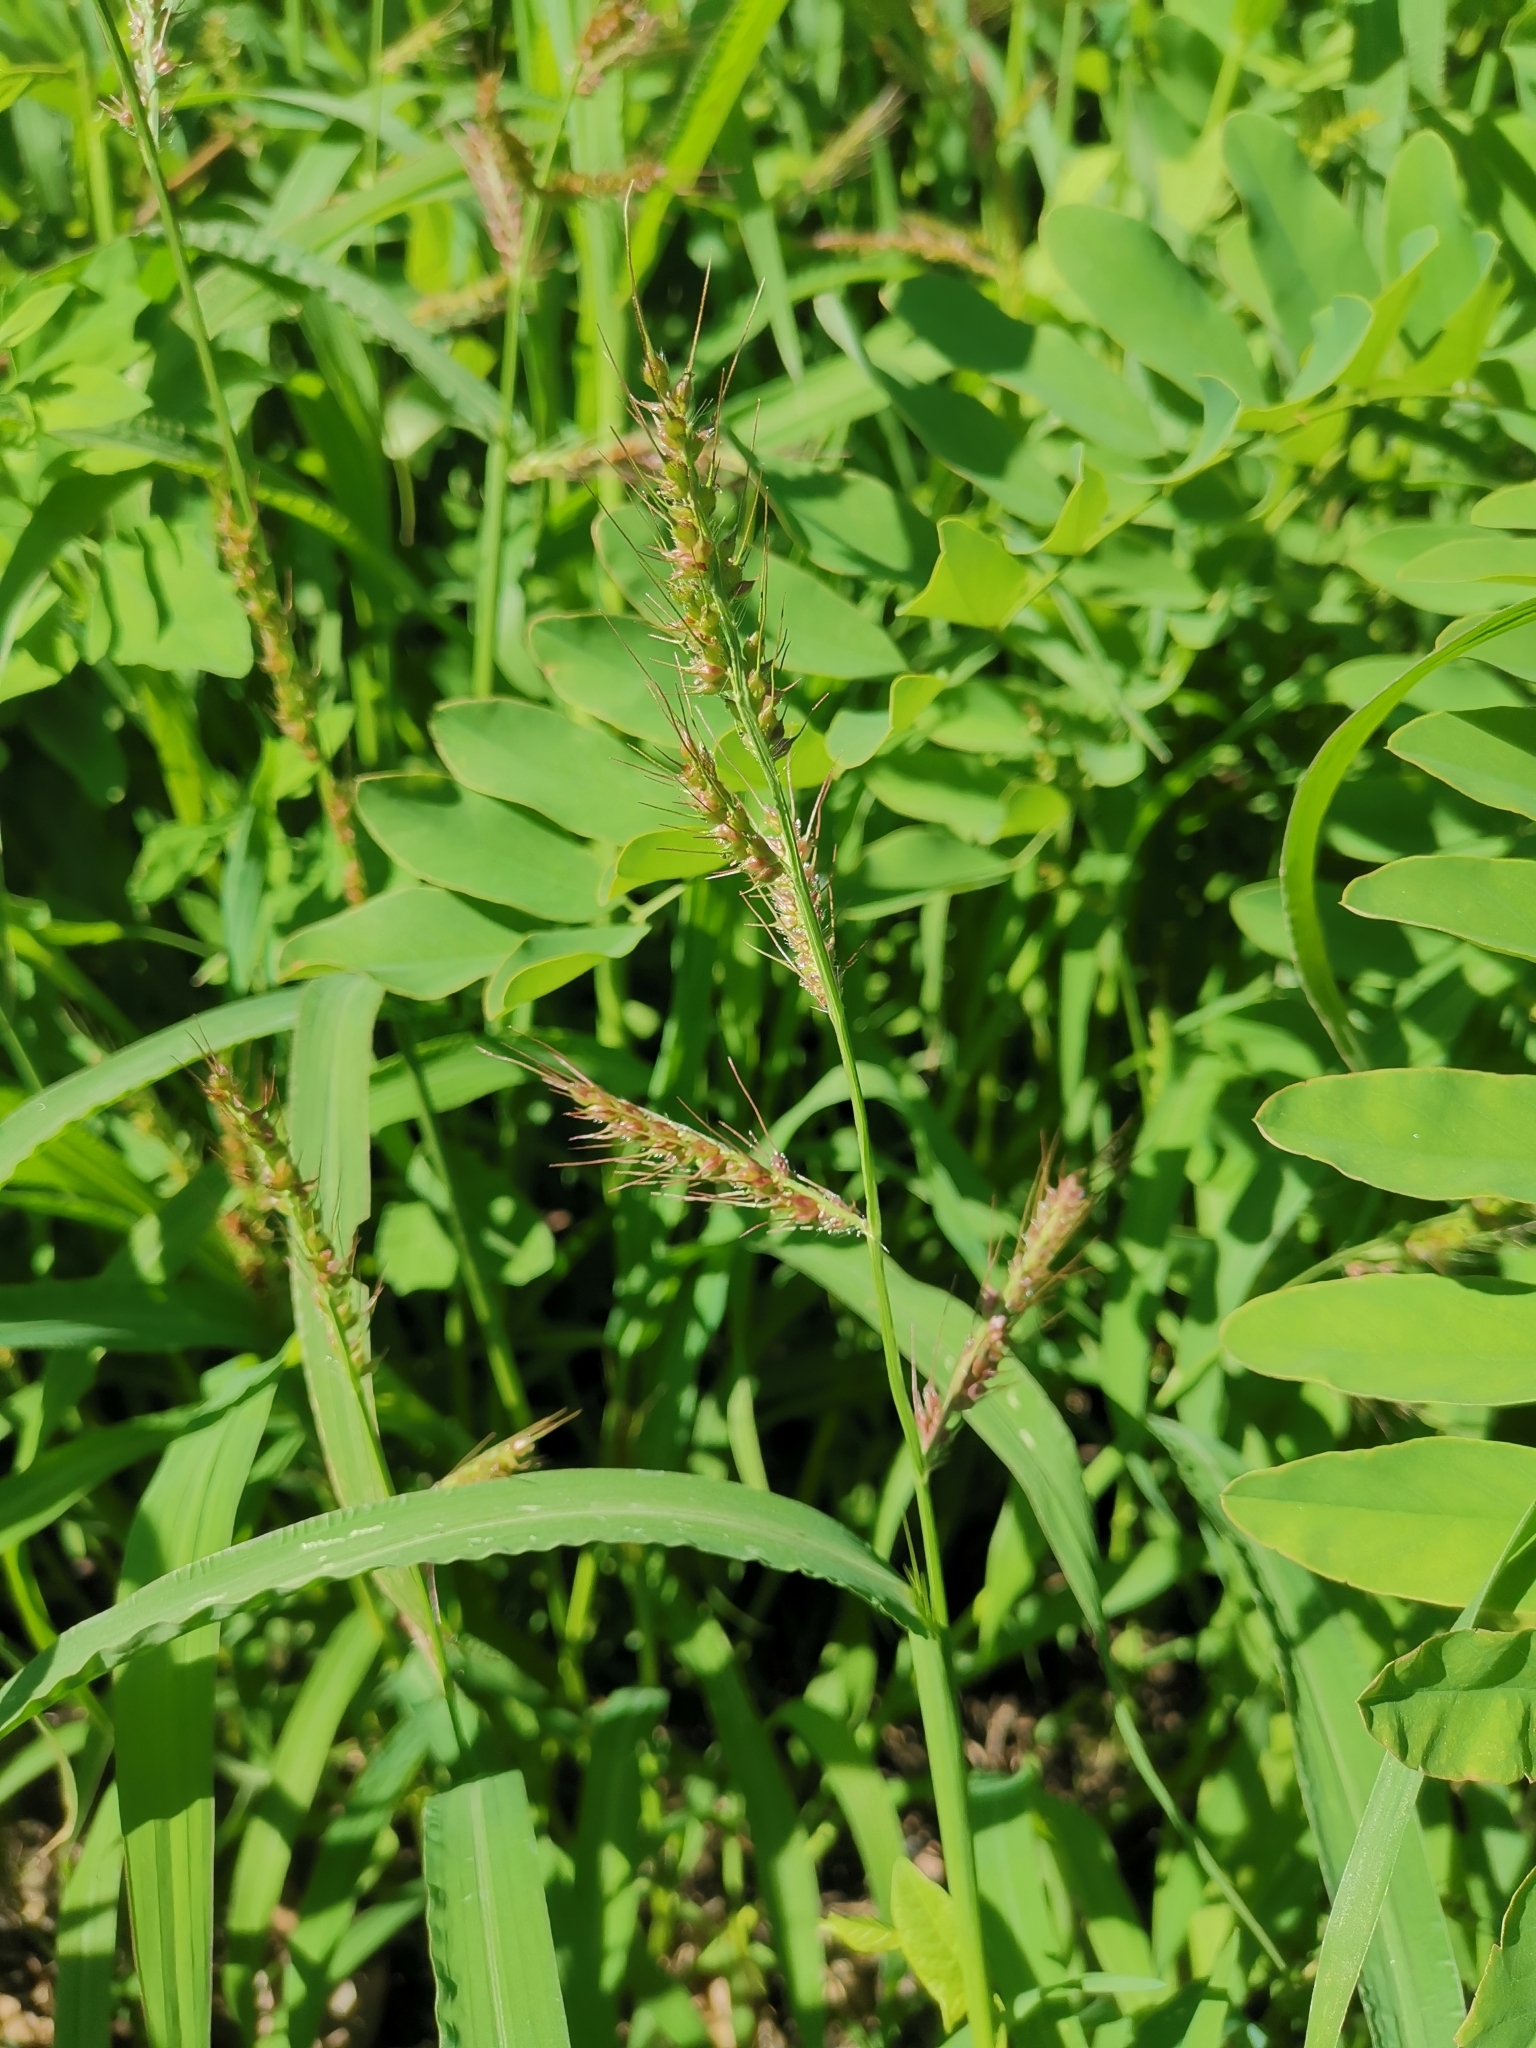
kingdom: Plantae
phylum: Tracheophyta
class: Liliopsida
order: Poales
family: Poaceae
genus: Echinochloa
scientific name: Echinochloa crus-galli
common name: Cockspur
